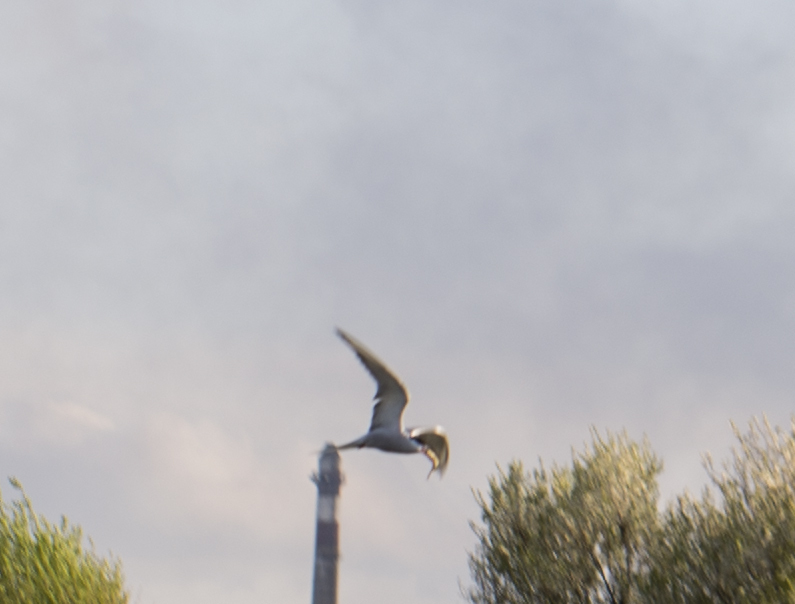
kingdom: Animalia
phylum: Chordata
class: Aves
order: Charadriiformes
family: Laridae
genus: Sterna
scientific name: Sterna hirundo
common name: Common tern
